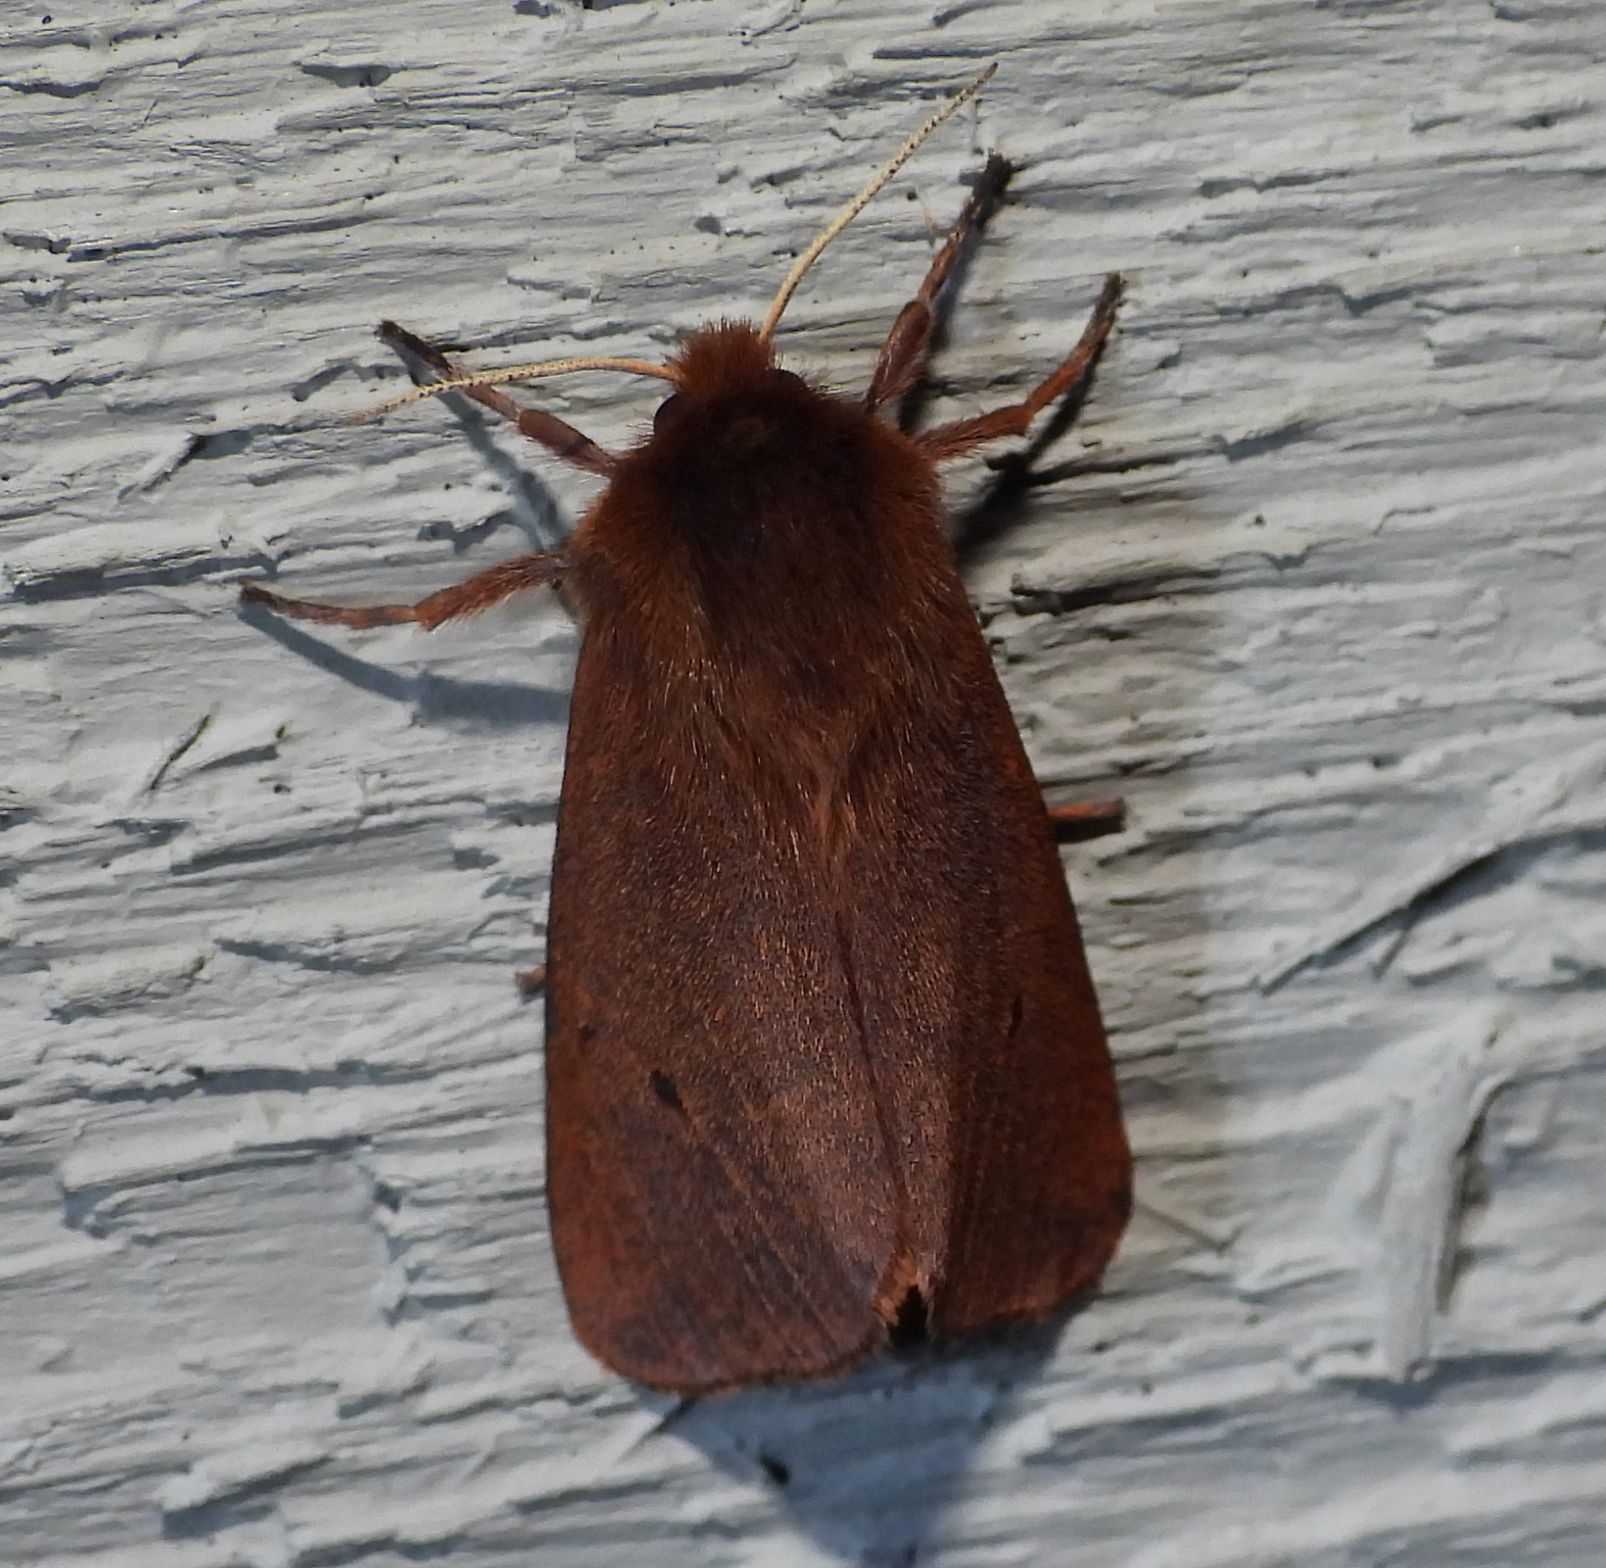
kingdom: Animalia
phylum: Arthropoda
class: Insecta
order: Lepidoptera
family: Erebidae
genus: Phragmatobia
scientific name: Phragmatobia fuliginosa
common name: Ruby tiger
